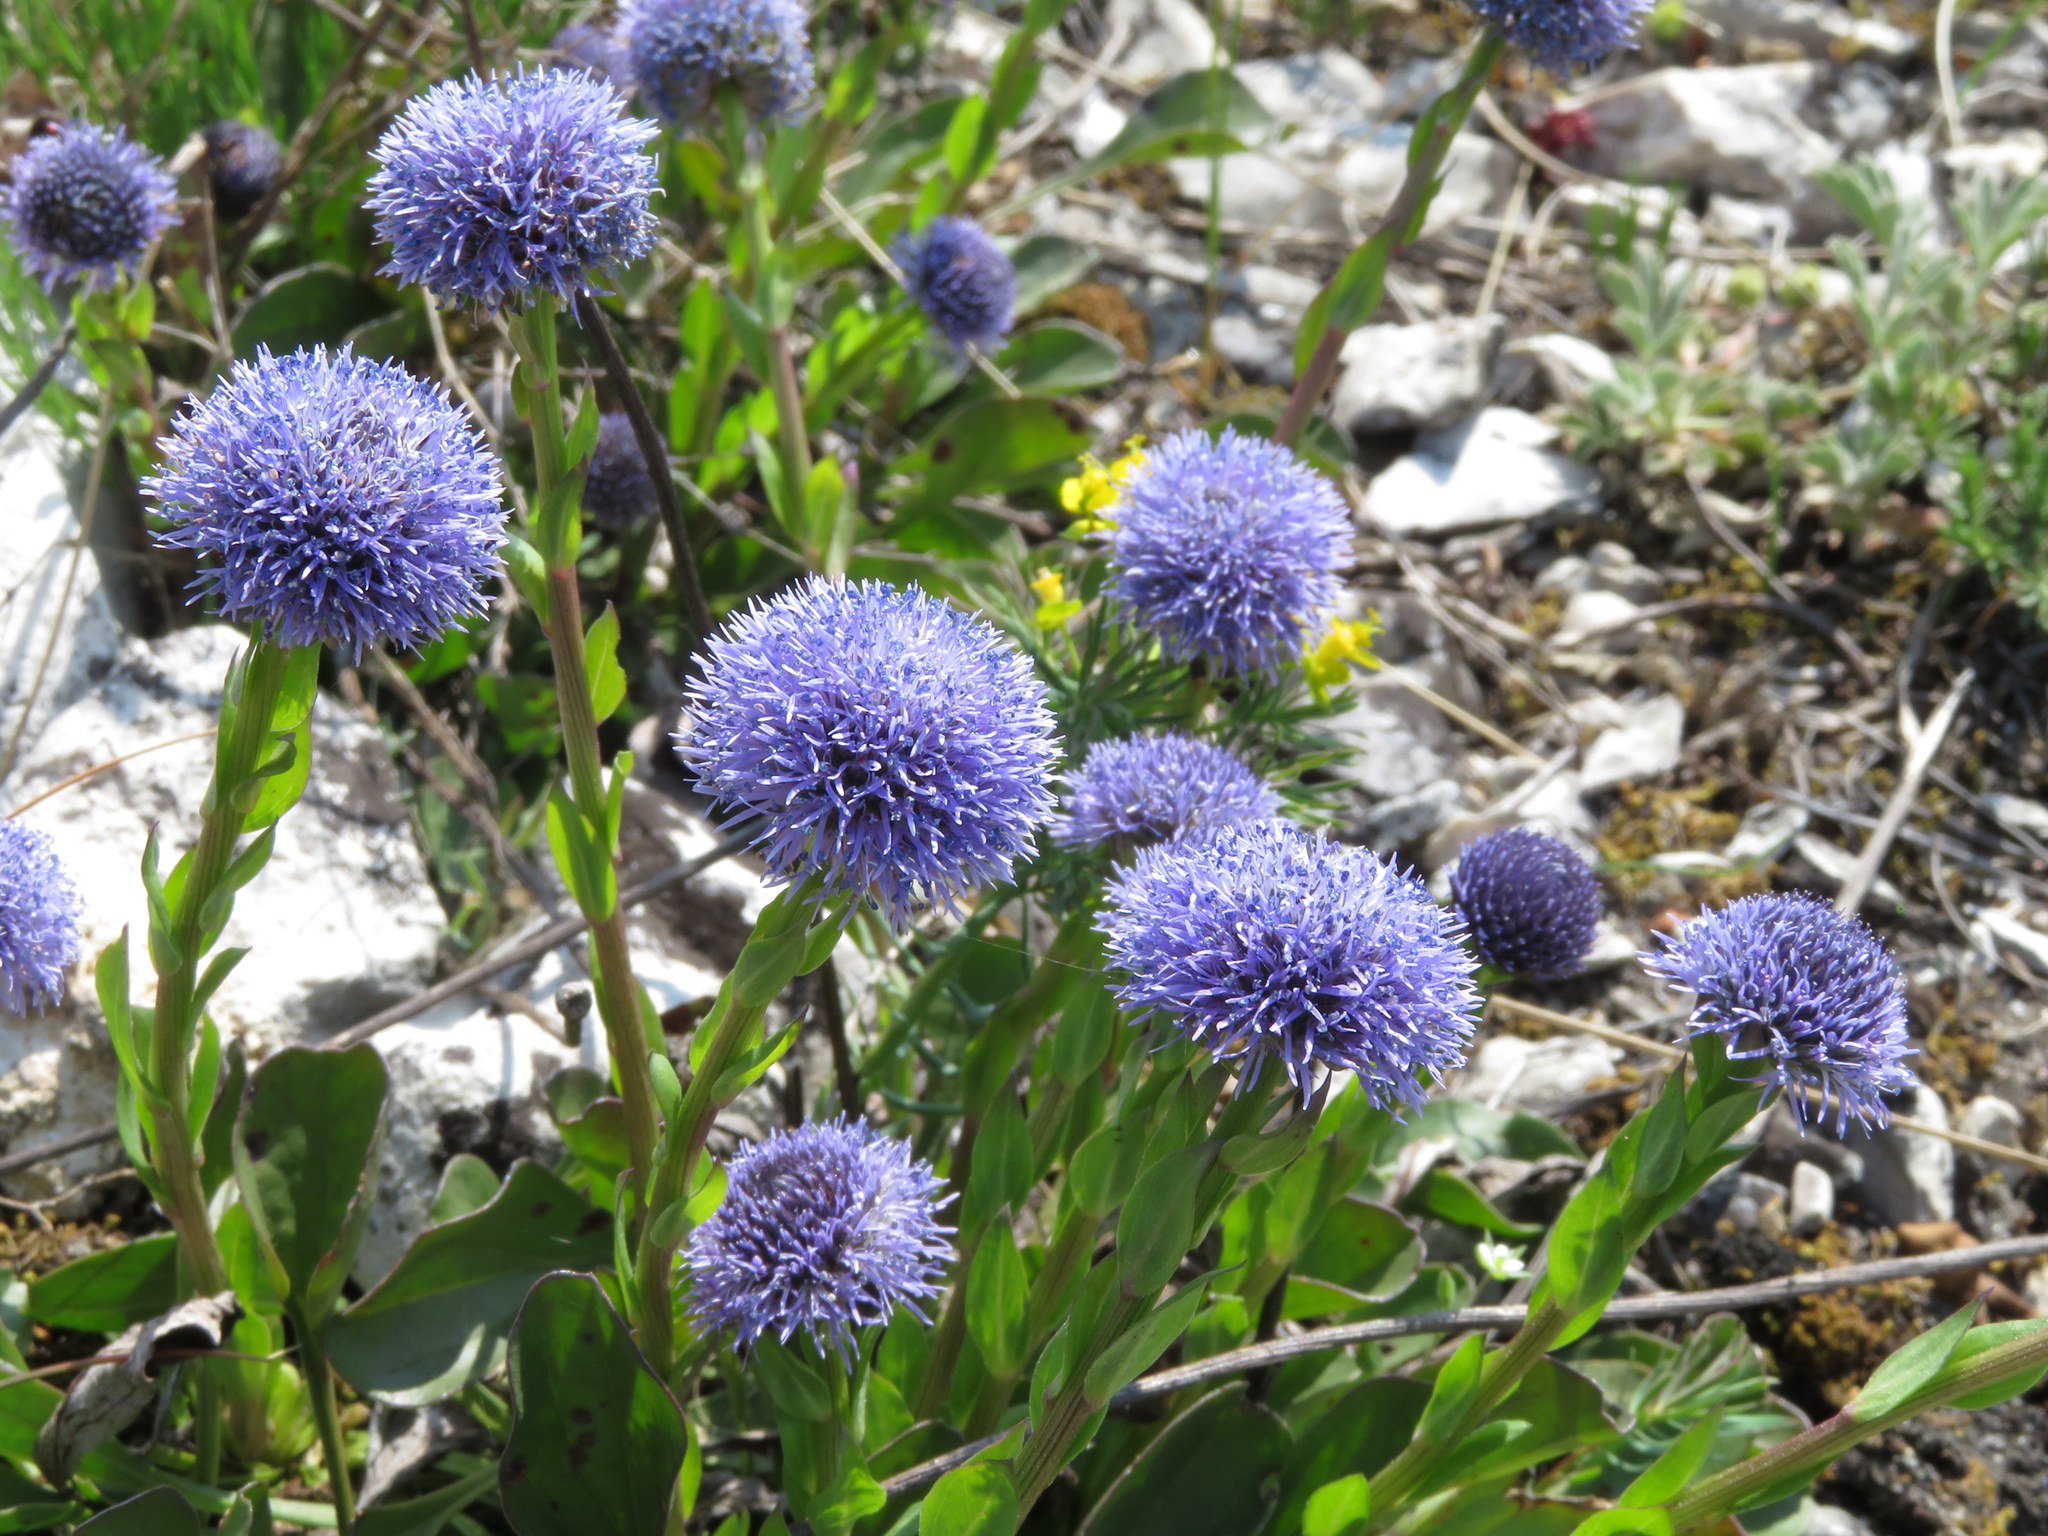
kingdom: Plantae
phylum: Tracheophyta
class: Magnoliopsida
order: Lamiales
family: Plantaginaceae
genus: Globularia
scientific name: Globularia bisnagarica
